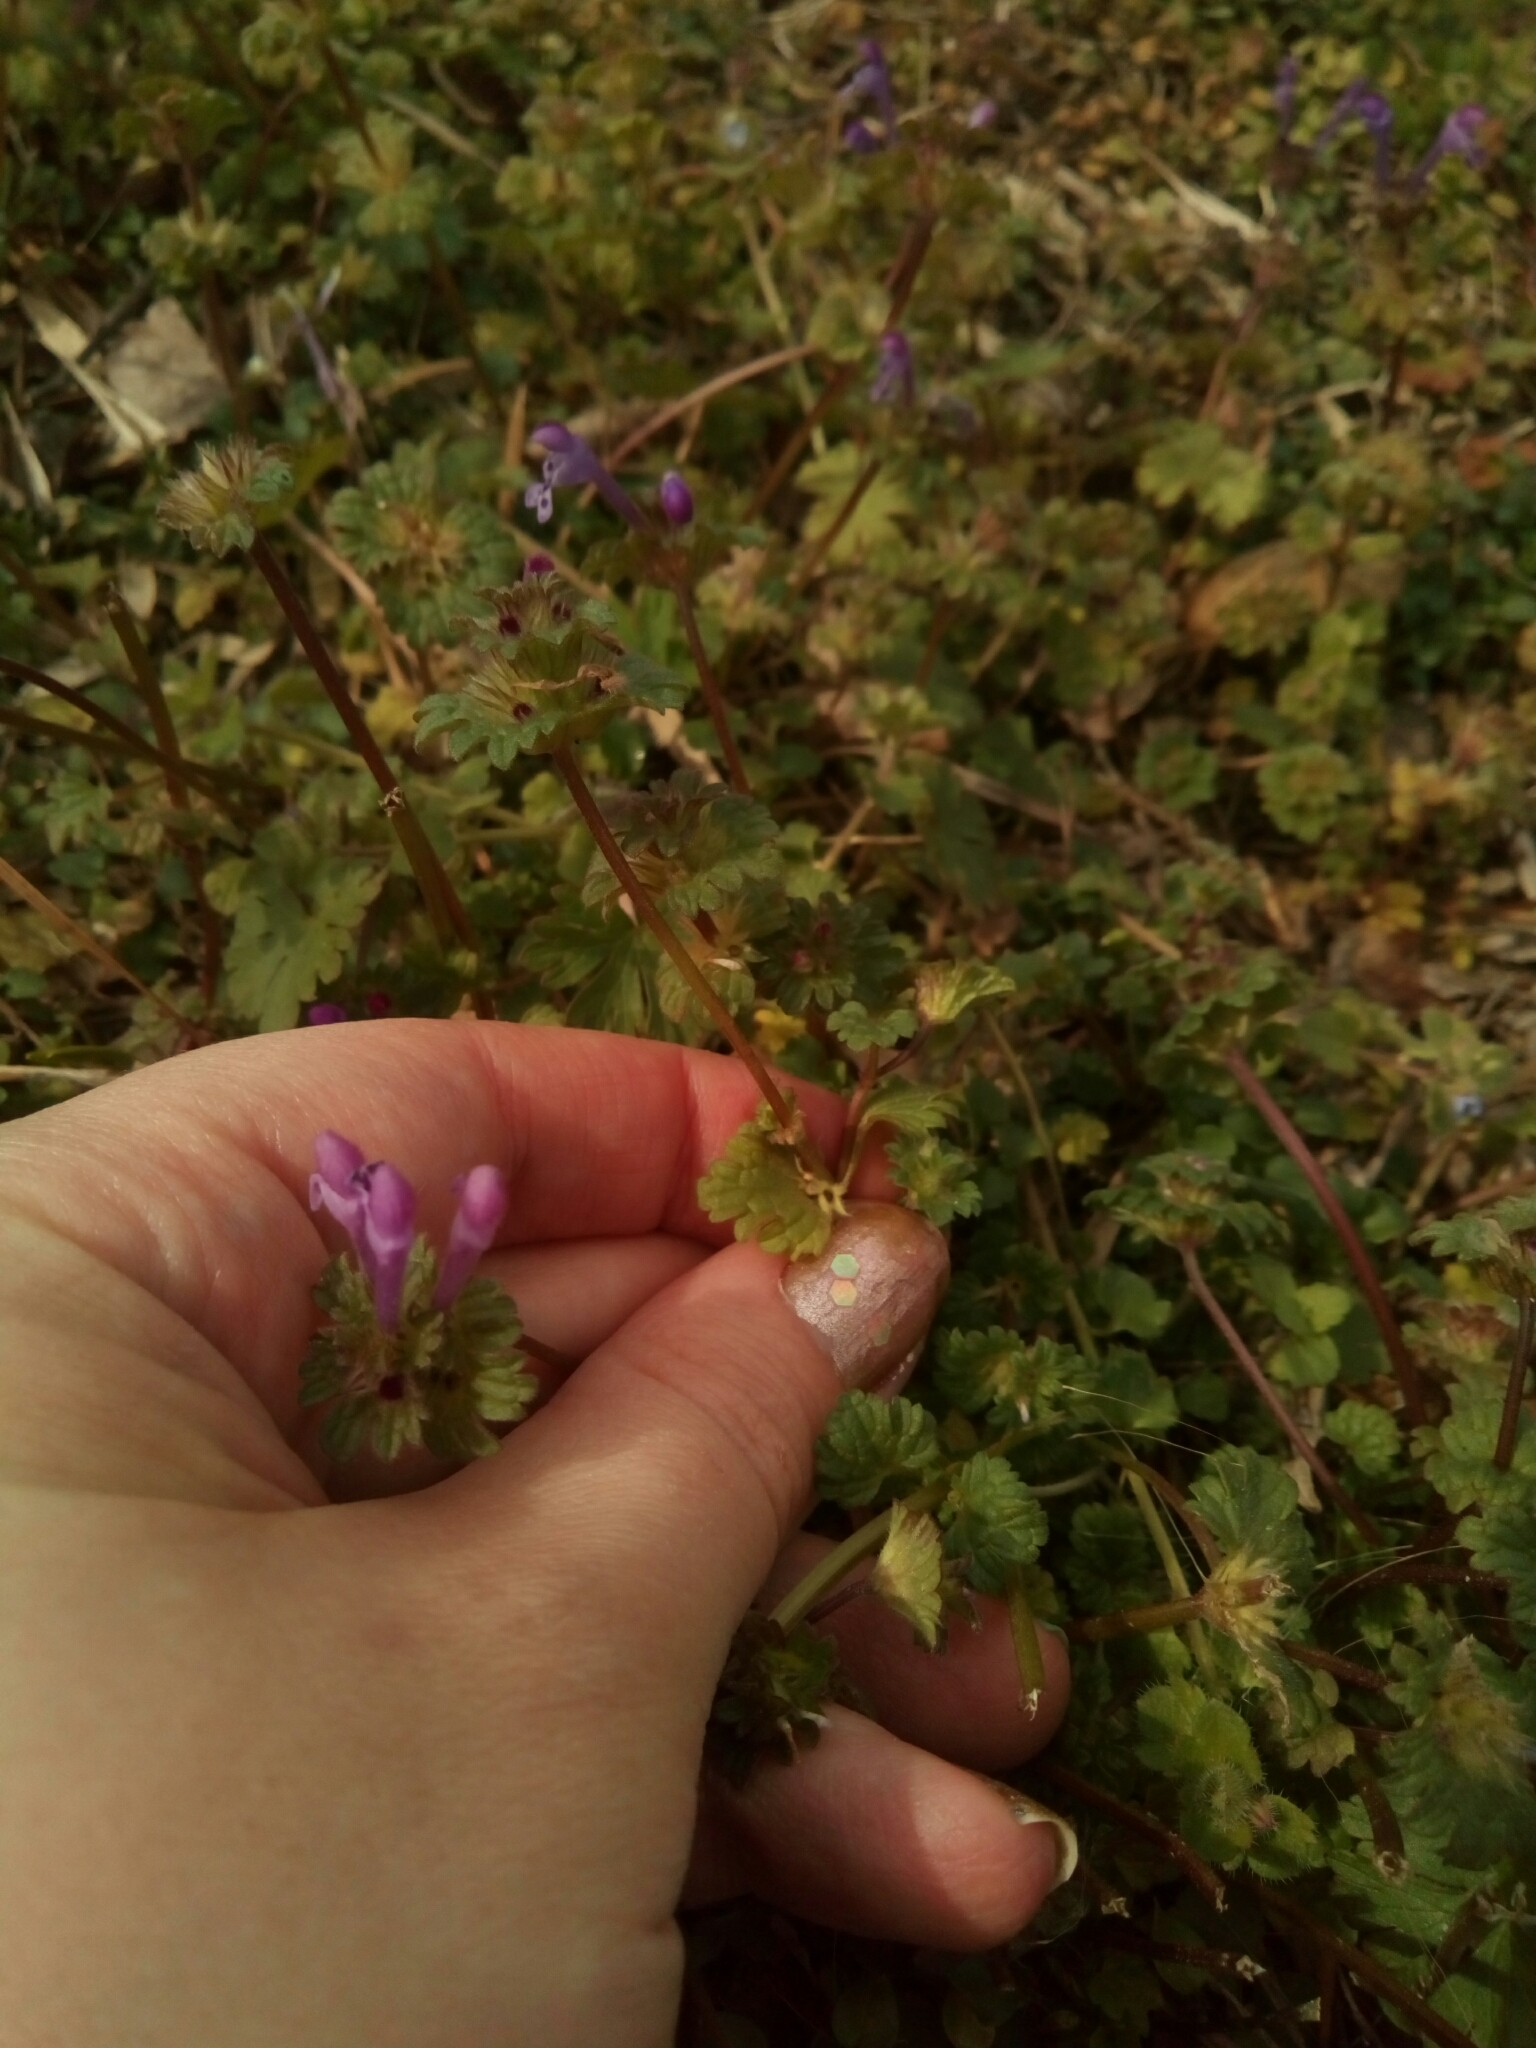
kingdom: Plantae
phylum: Tracheophyta
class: Magnoliopsida
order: Lamiales
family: Lamiaceae
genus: Lamium
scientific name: Lamium amplexicaule
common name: Henbit dead-nettle
